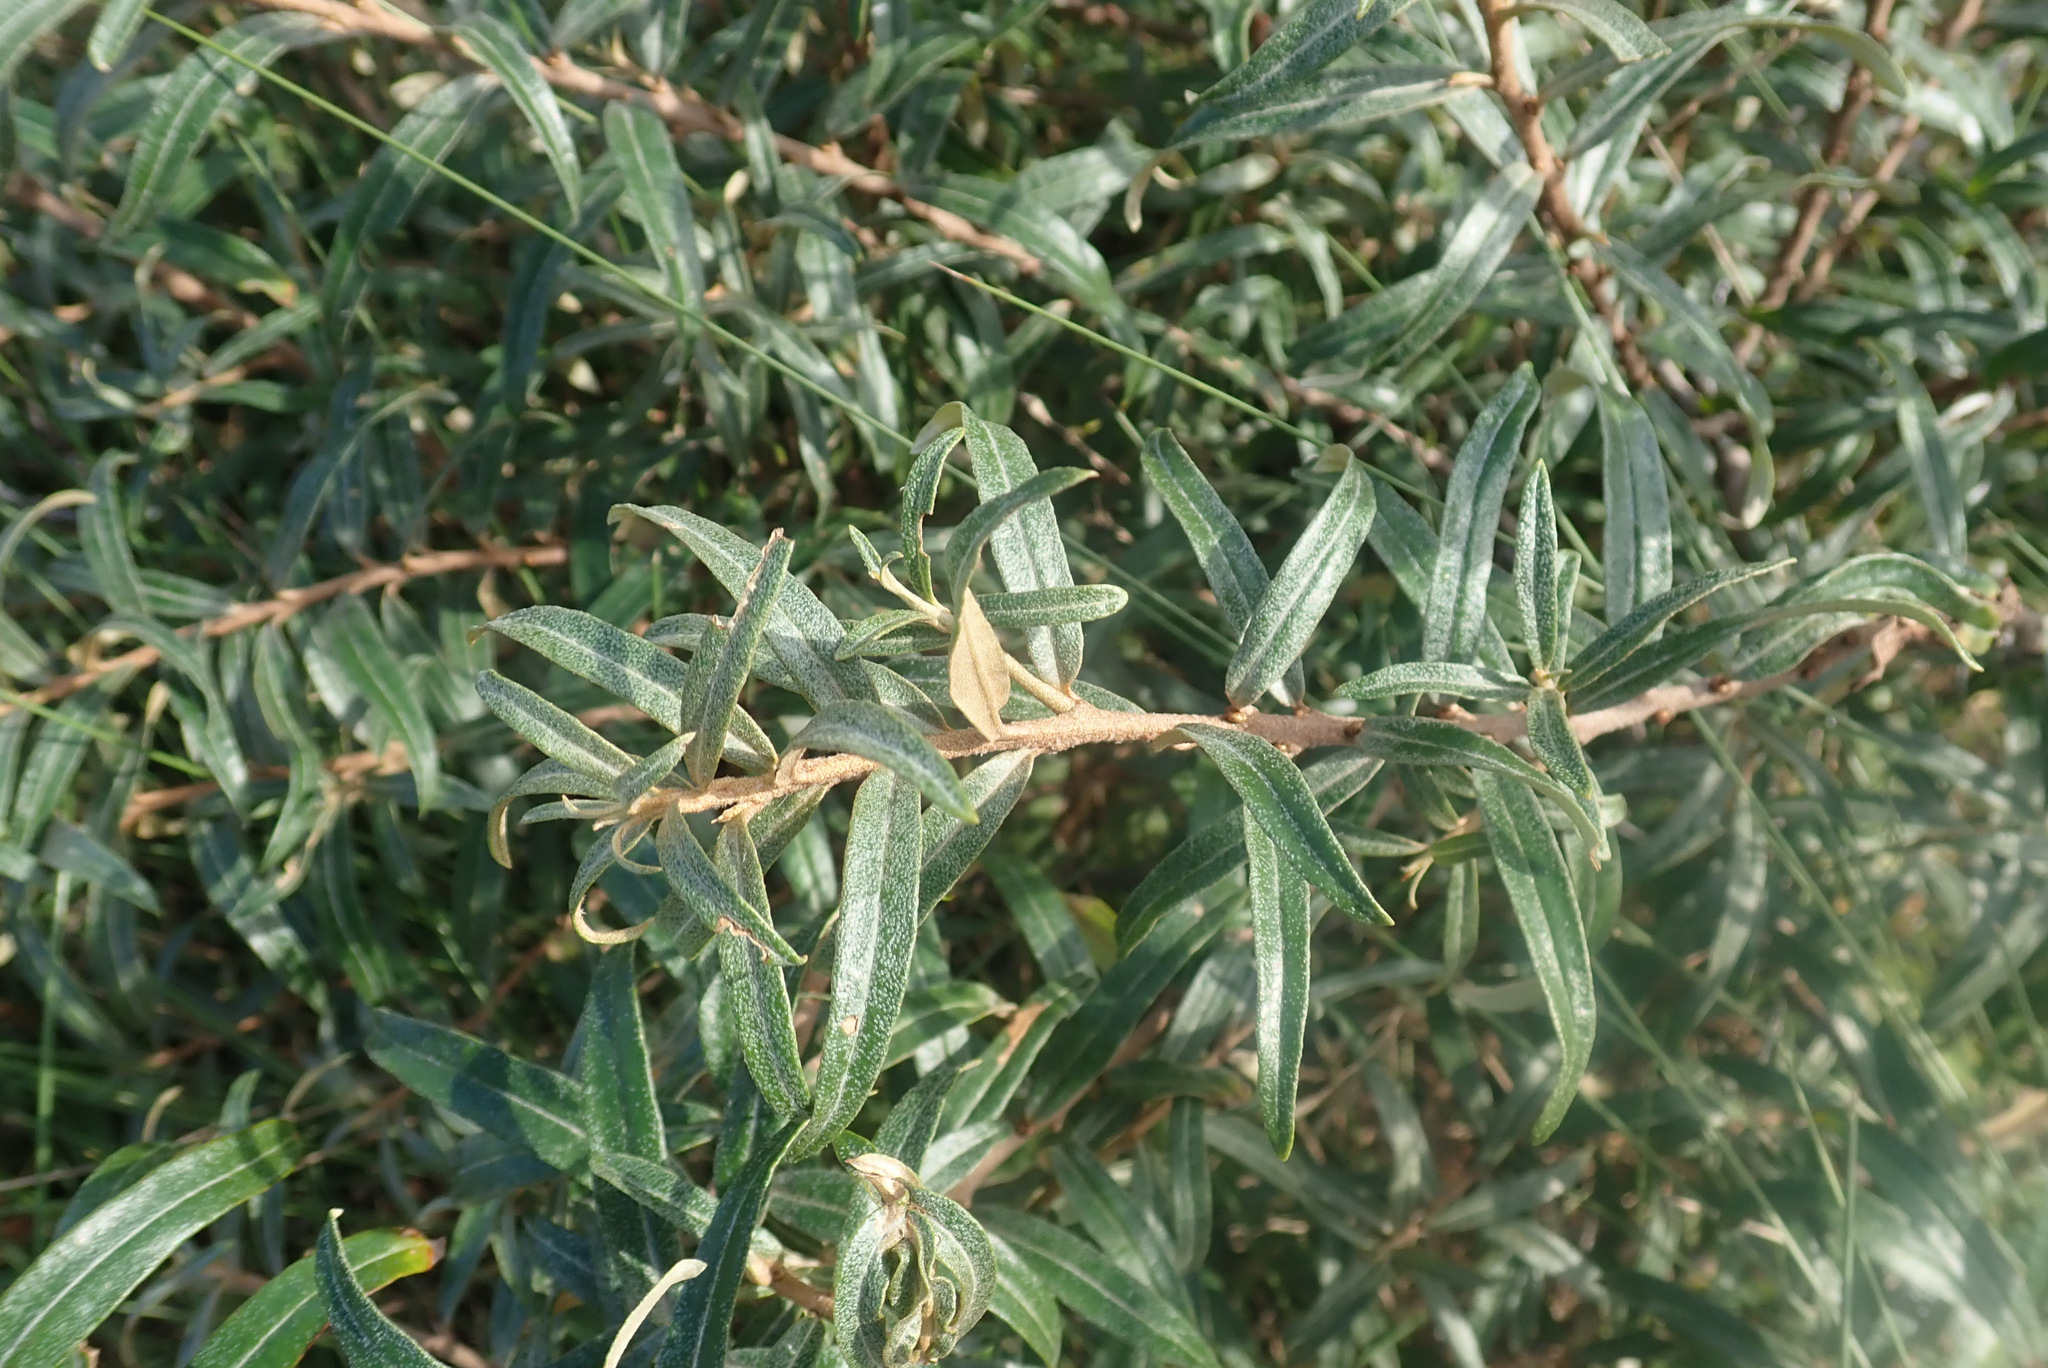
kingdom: Plantae
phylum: Tracheophyta
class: Magnoliopsida
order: Rosales
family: Elaeagnaceae
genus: Hippophae
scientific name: Hippophae rhamnoides
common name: Sea-buckthorn
